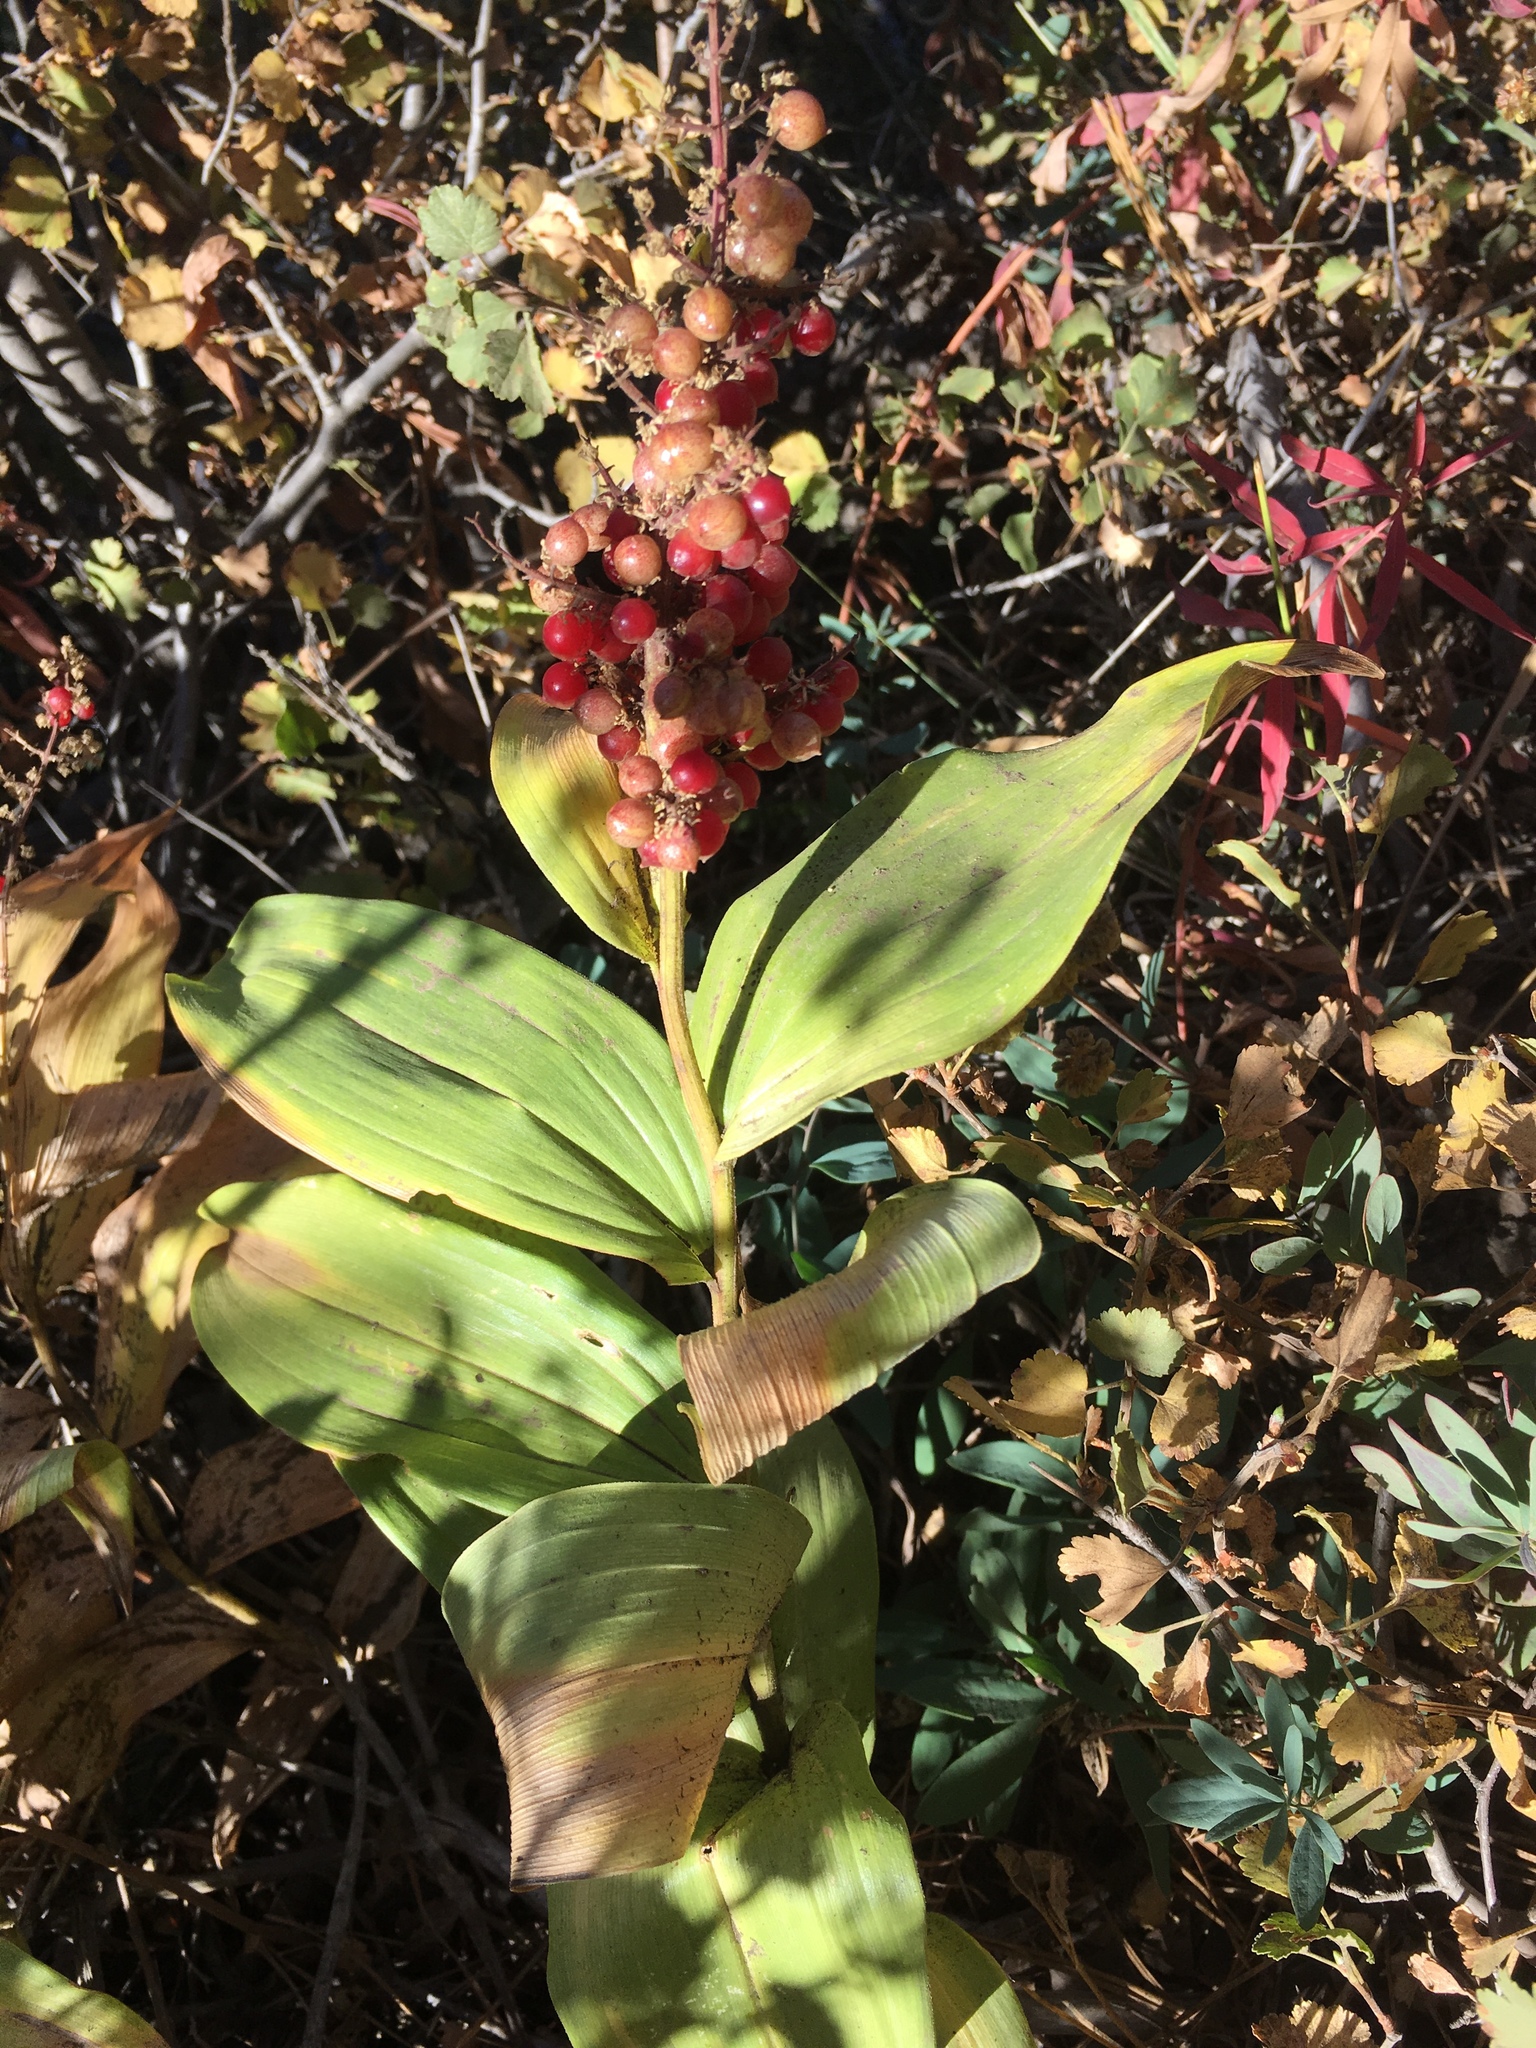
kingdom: Plantae
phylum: Tracheophyta
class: Liliopsida
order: Asparagales
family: Asparagaceae
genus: Maianthemum
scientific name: Maianthemum racemosum
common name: False spikenard
